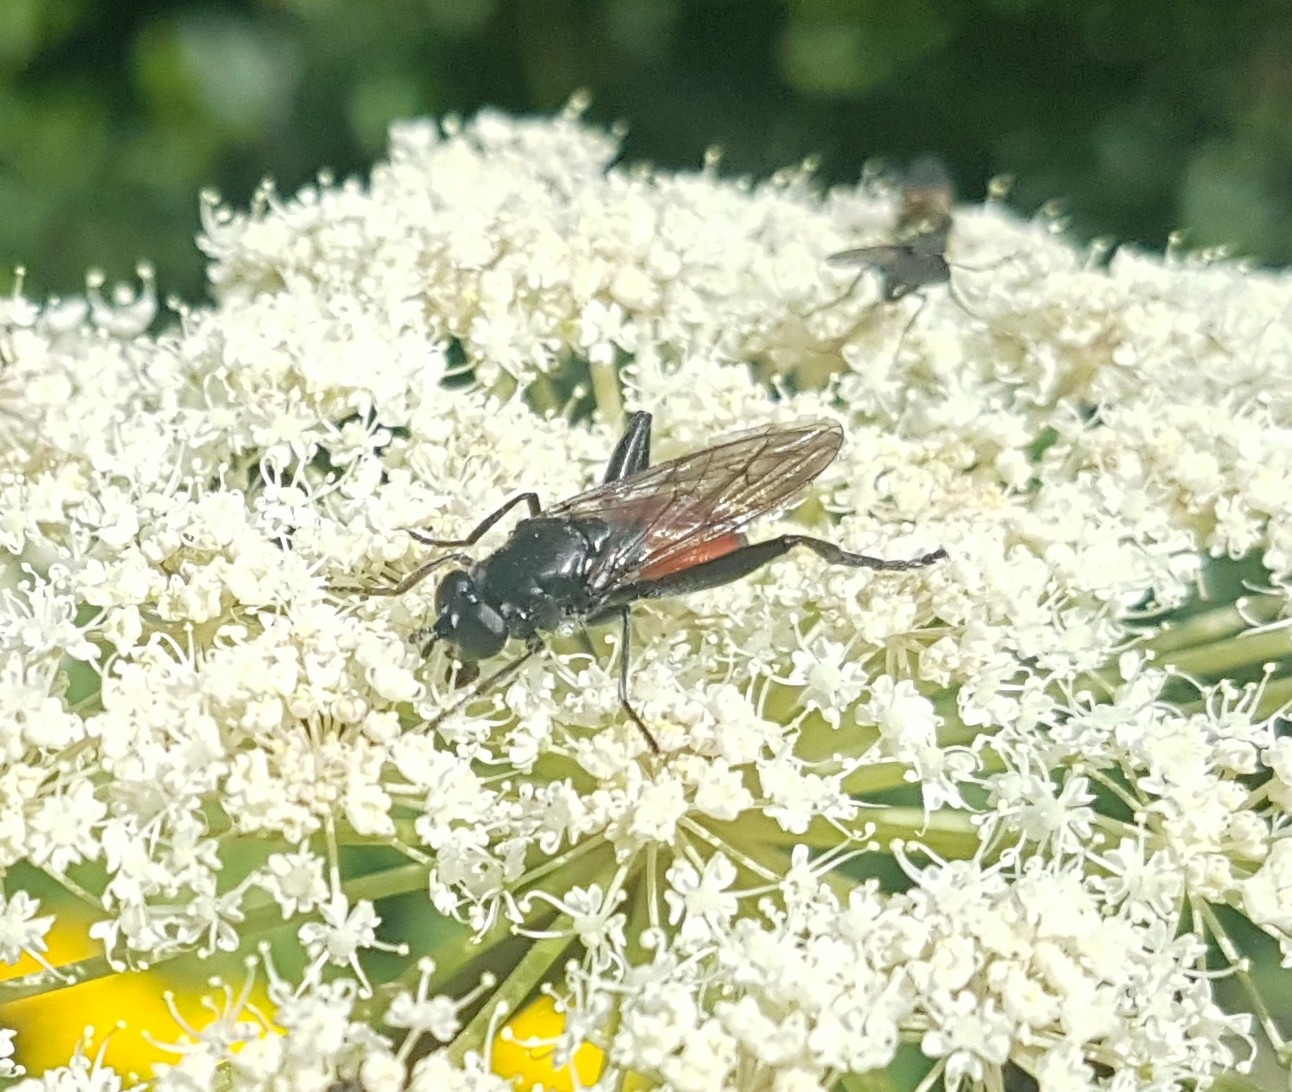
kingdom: Animalia
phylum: Arthropoda
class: Insecta
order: Diptera
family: Syrphidae
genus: Brachypalpoides
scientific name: Brachypalpoides lenta
